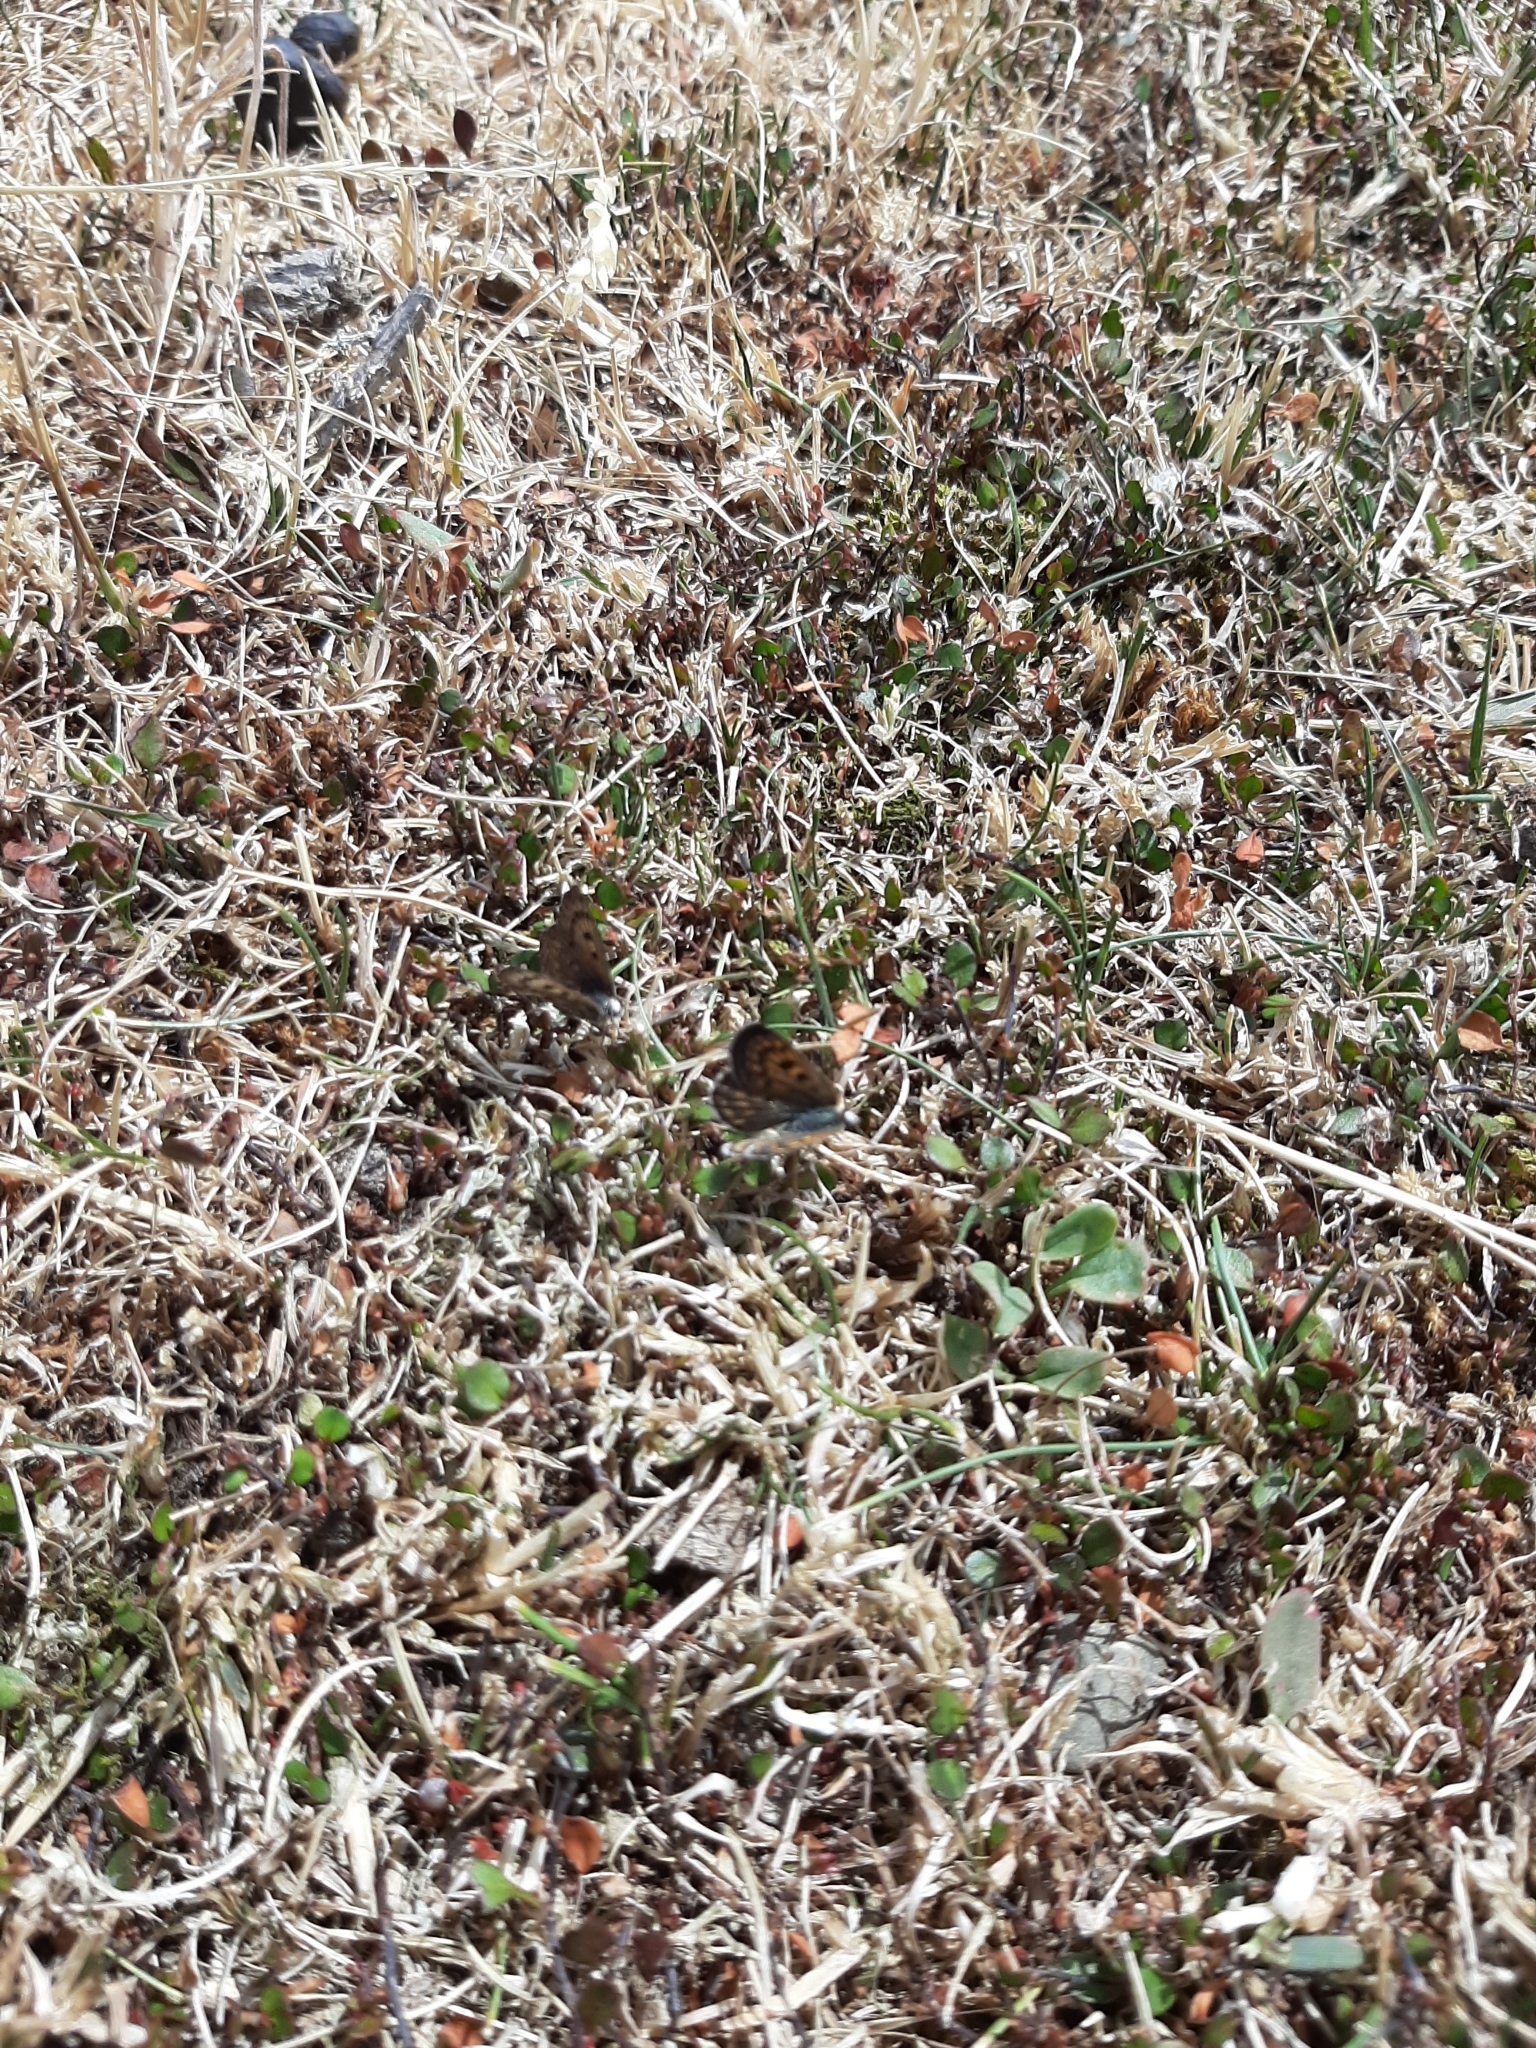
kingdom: Plantae
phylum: Tracheophyta
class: Magnoliopsida
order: Caryophyllales
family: Polygonaceae
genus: Muehlenbeckia
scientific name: Muehlenbeckia axillaris
